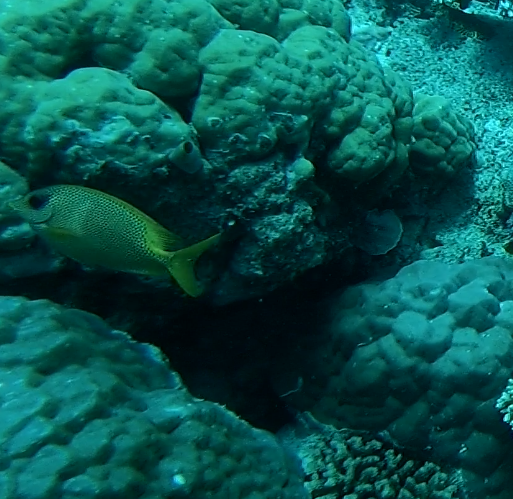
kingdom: Animalia
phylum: Chordata
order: Perciformes
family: Siganidae
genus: Siganus
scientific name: Siganus corallinus
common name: Coral rabbitfish
